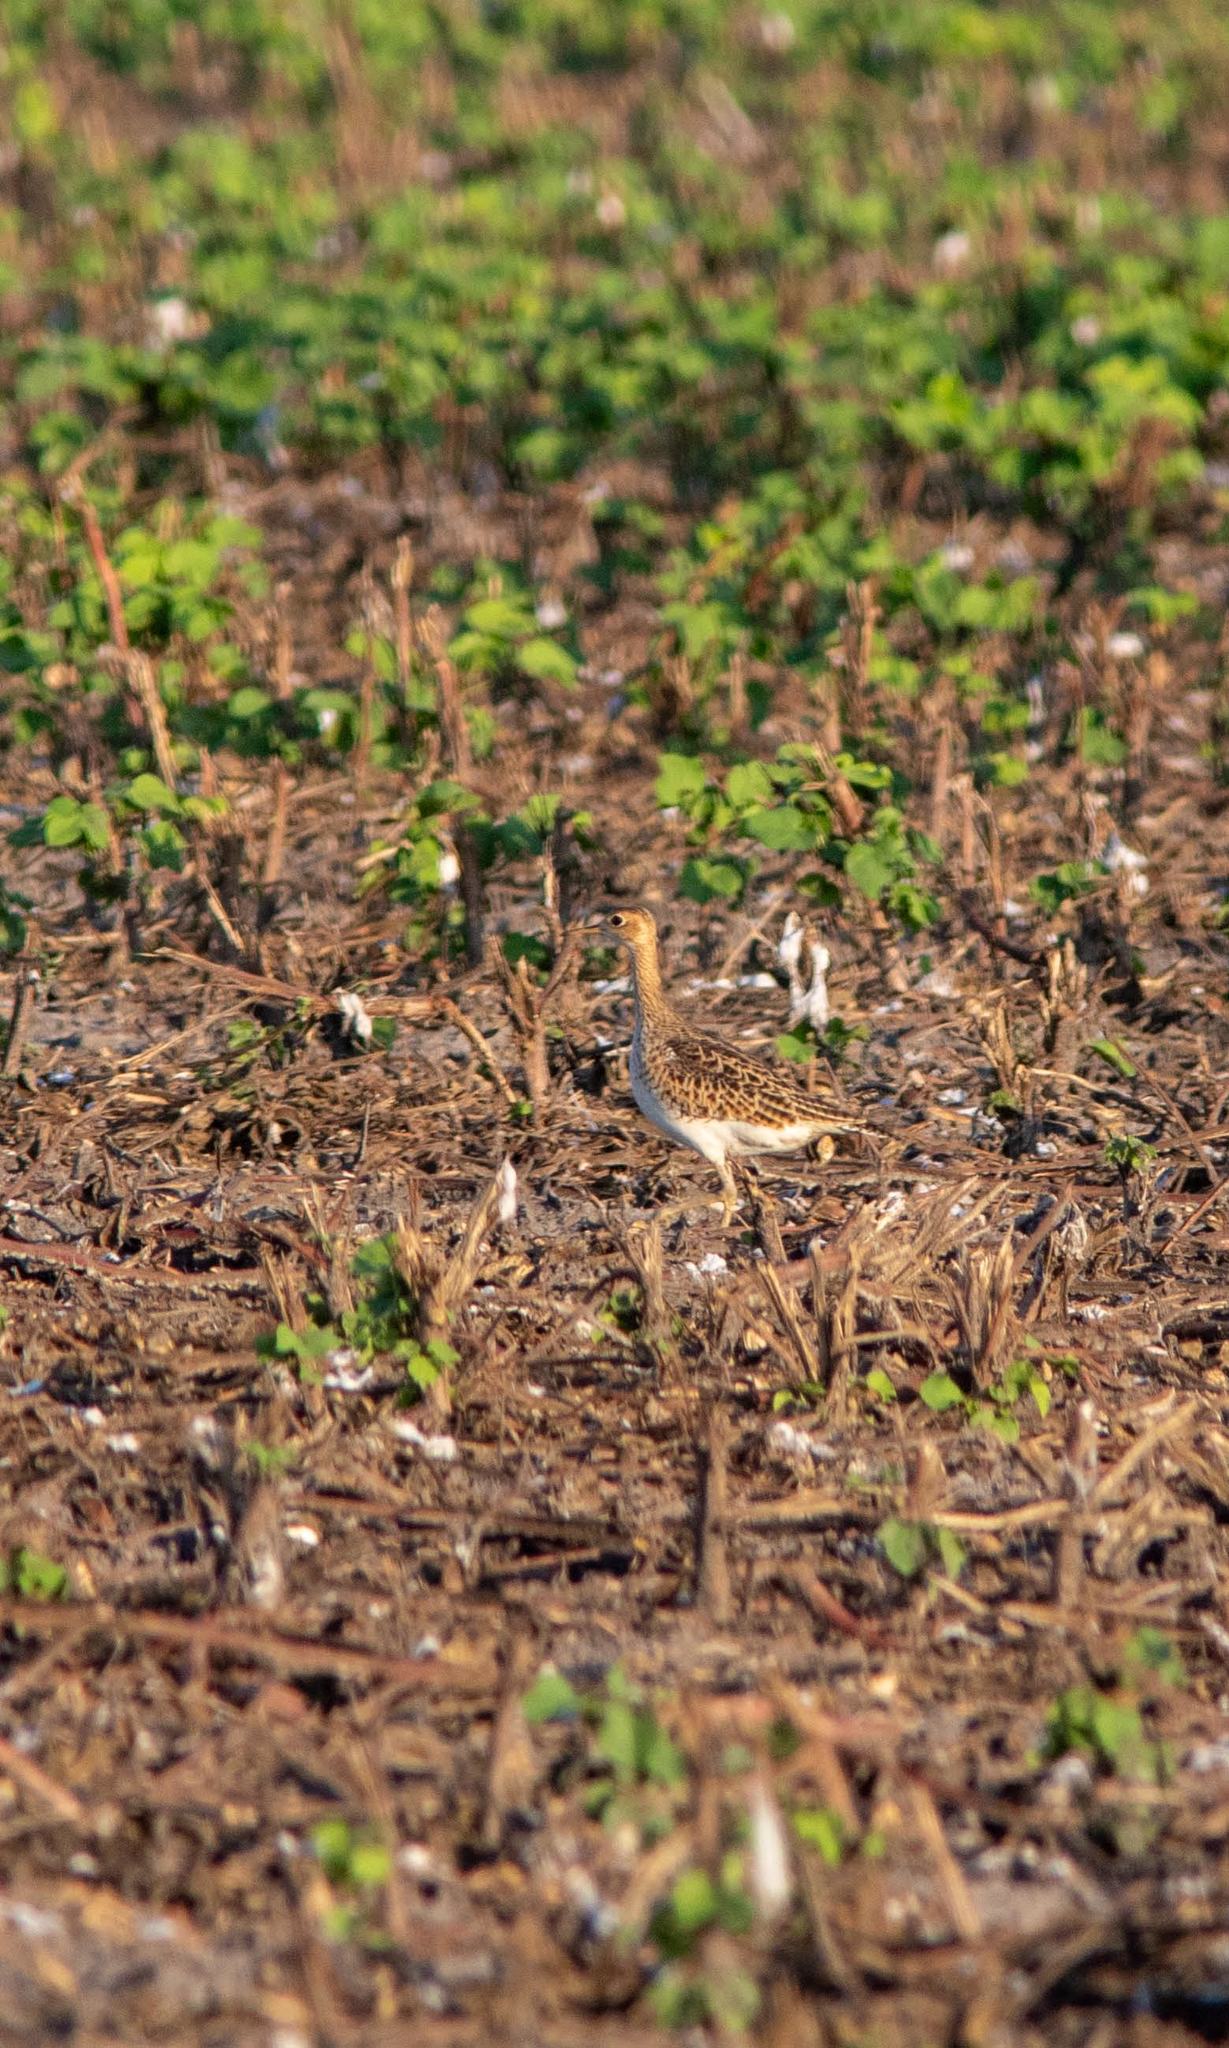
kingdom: Animalia
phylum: Chordata
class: Aves
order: Charadriiformes
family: Scolopacidae
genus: Bartramia
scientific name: Bartramia longicauda
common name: Upland sandpiper
